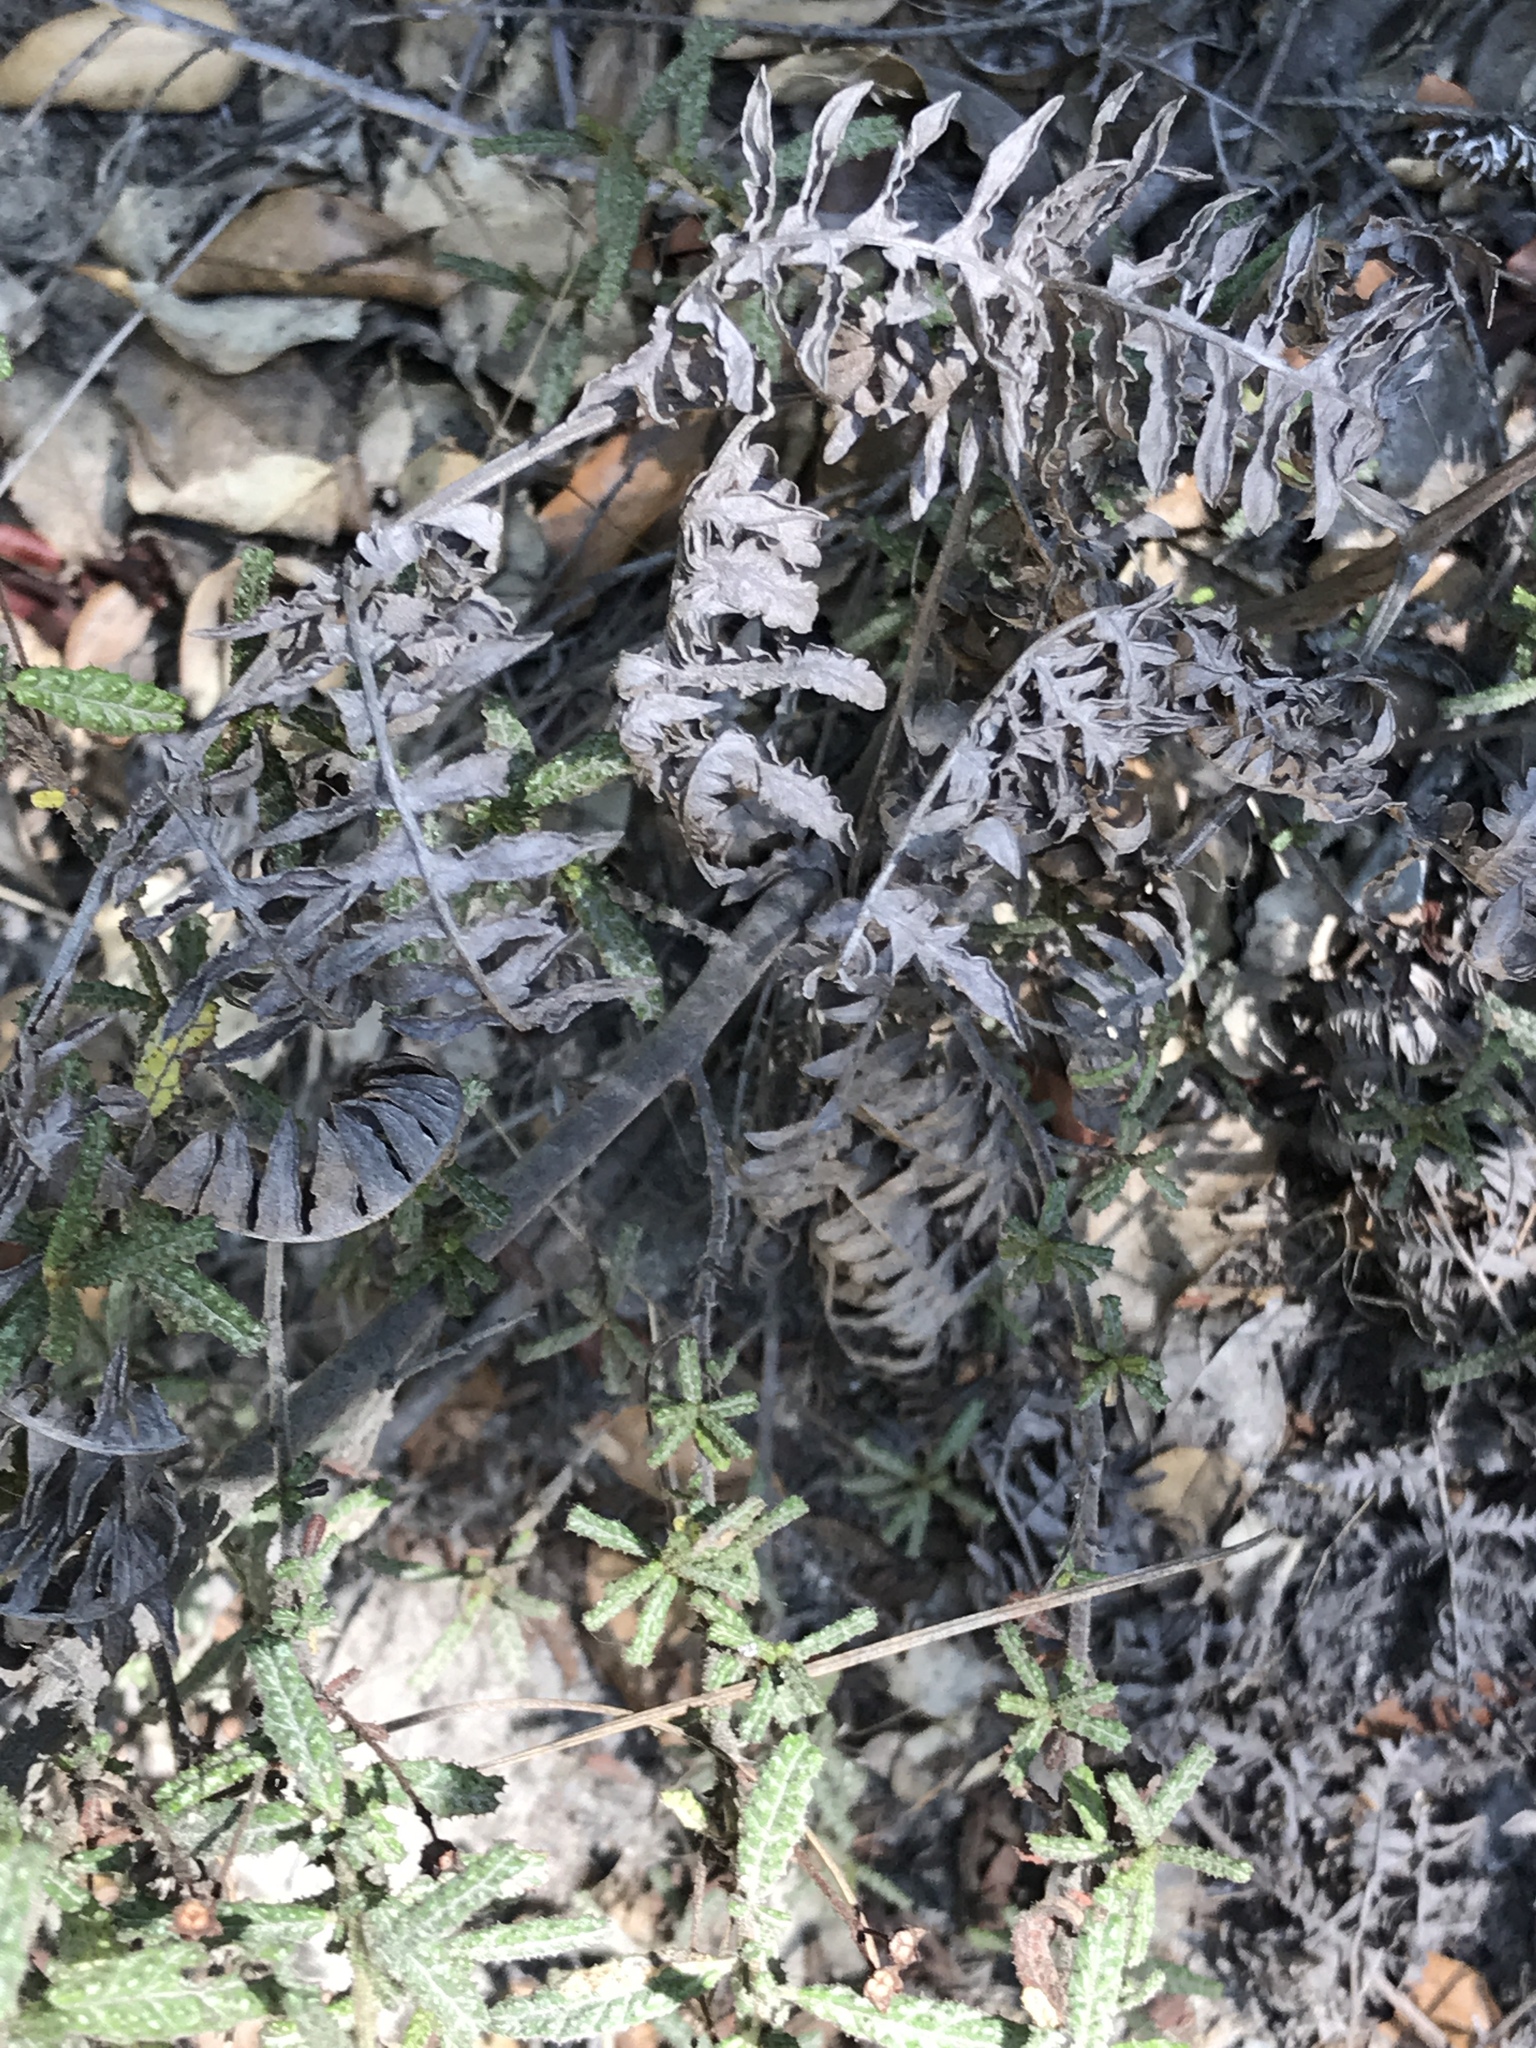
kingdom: Plantae
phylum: Tracheophyta
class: Magnoliopsida
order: Rosales
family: Rhamnaceae
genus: Ceanothus
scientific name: Ceanothus papillosus
